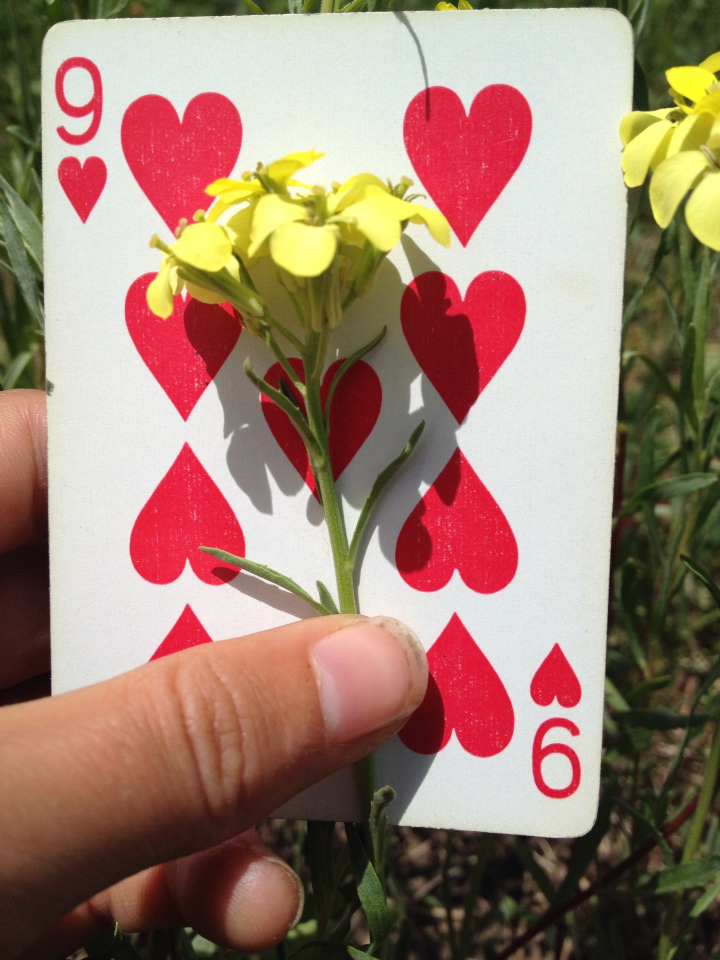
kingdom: Plantae
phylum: Tracheophyta
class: Magnoliopsida
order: Brassicales
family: Brassicaceae
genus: Erysimum
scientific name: Erysimum capitatum
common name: Western wallflower
